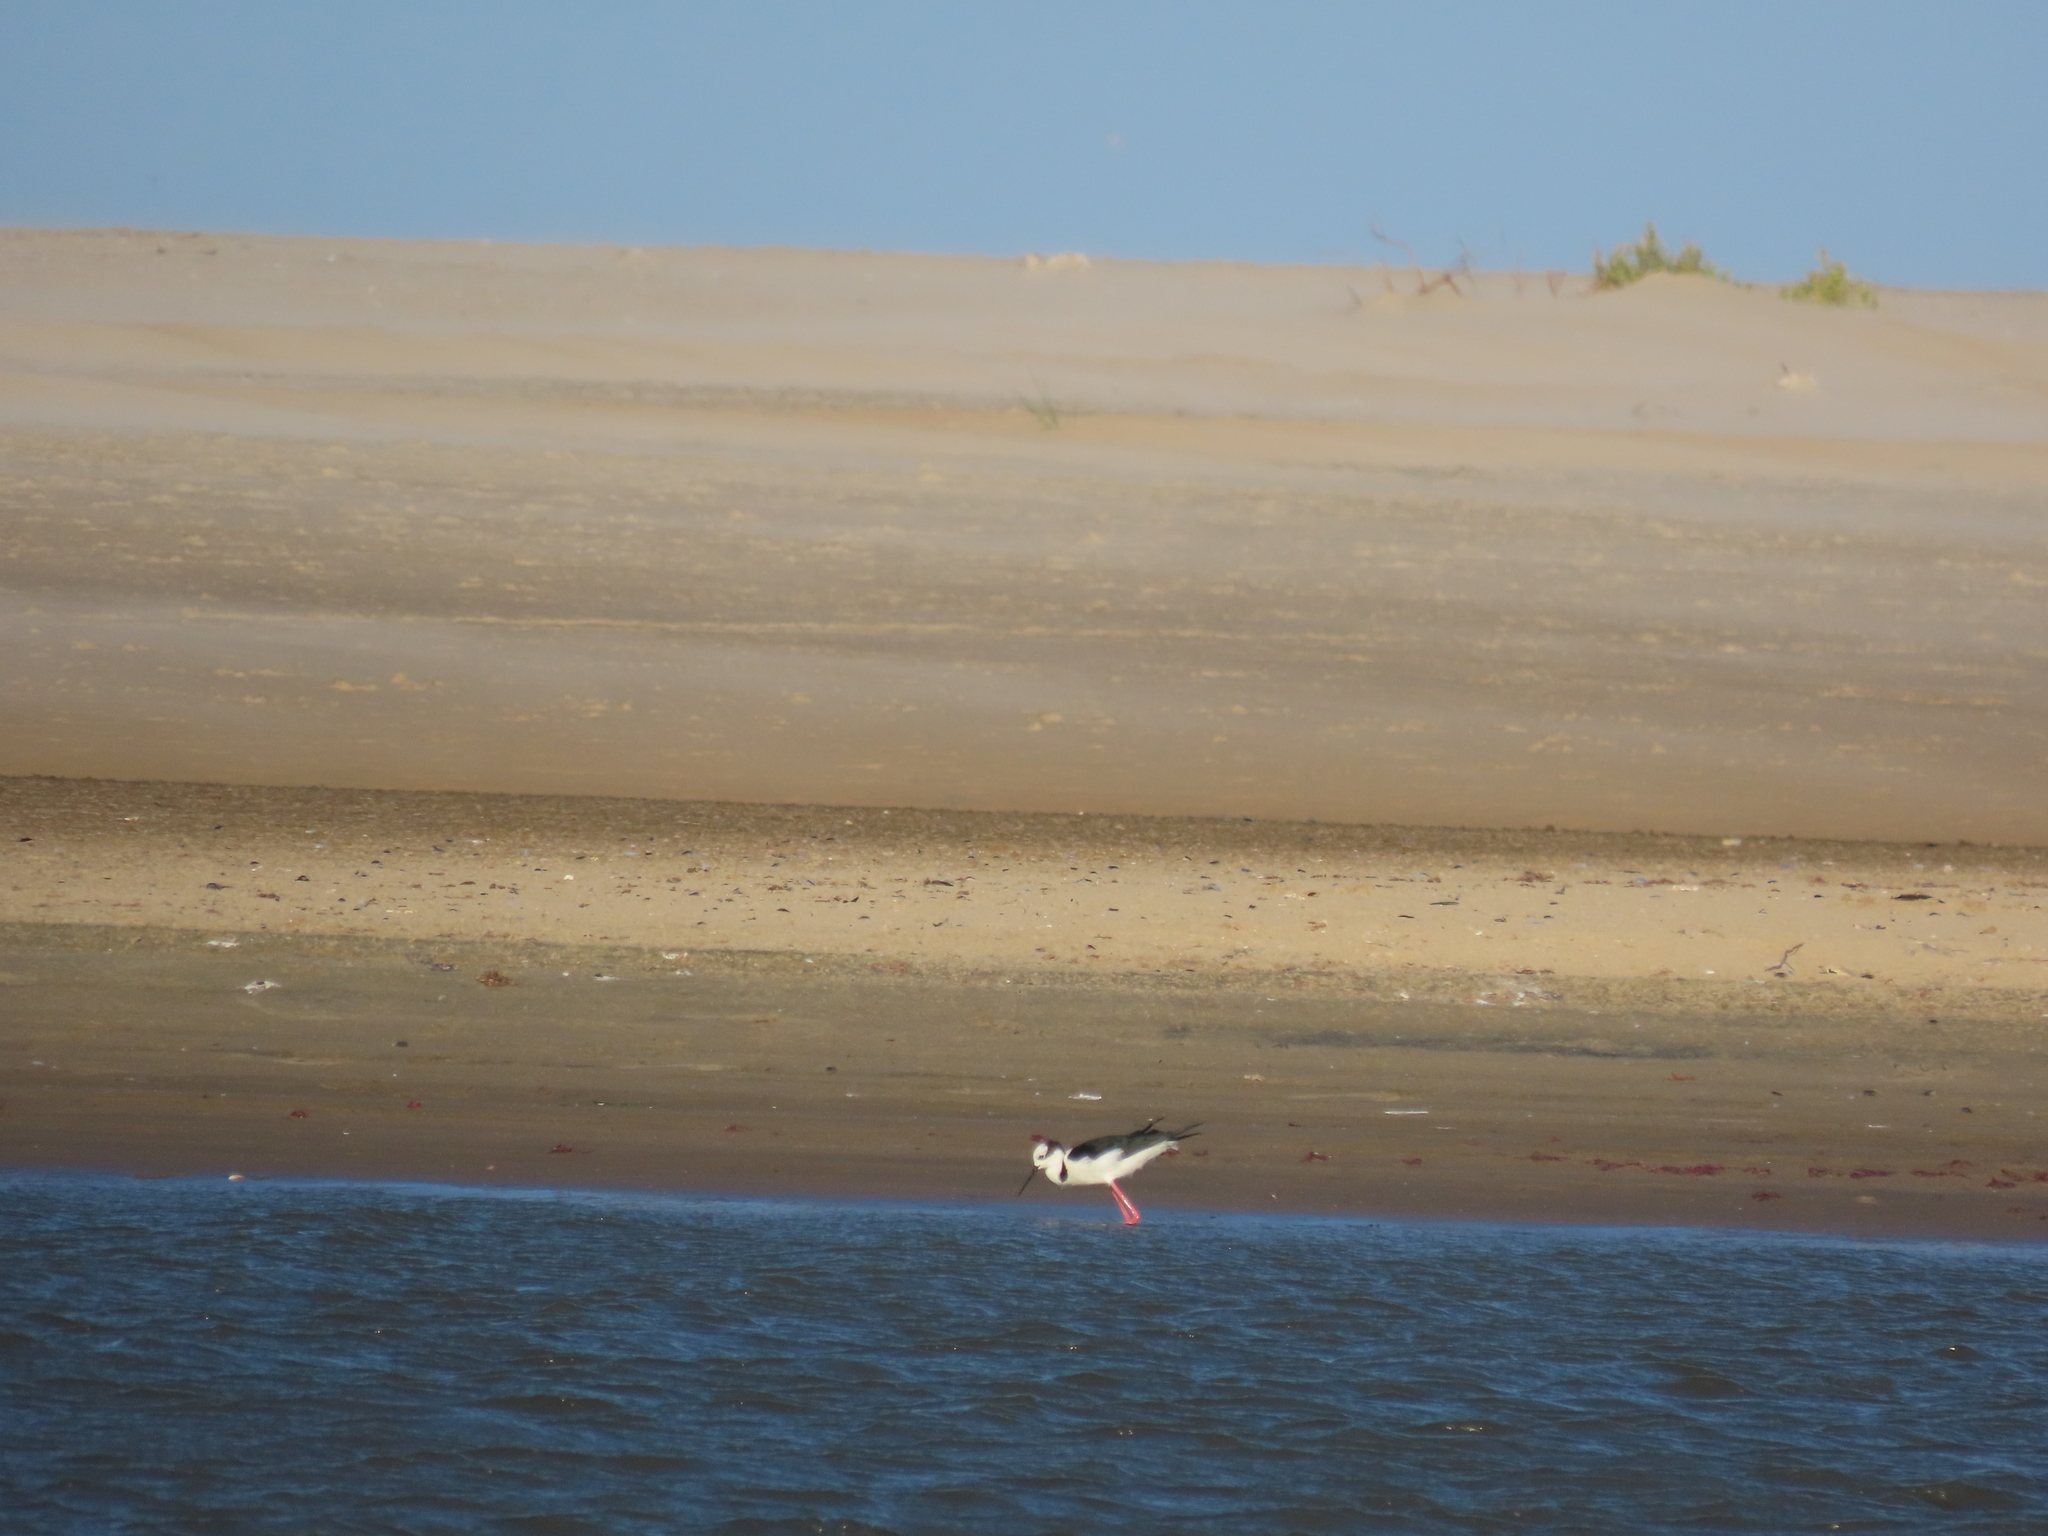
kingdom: Animalia
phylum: Chordata
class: Aves
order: Charadriiformes
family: Recurvirostridae
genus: Himantopus
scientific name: Himantopus mexicanus
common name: Black-necked stilt
